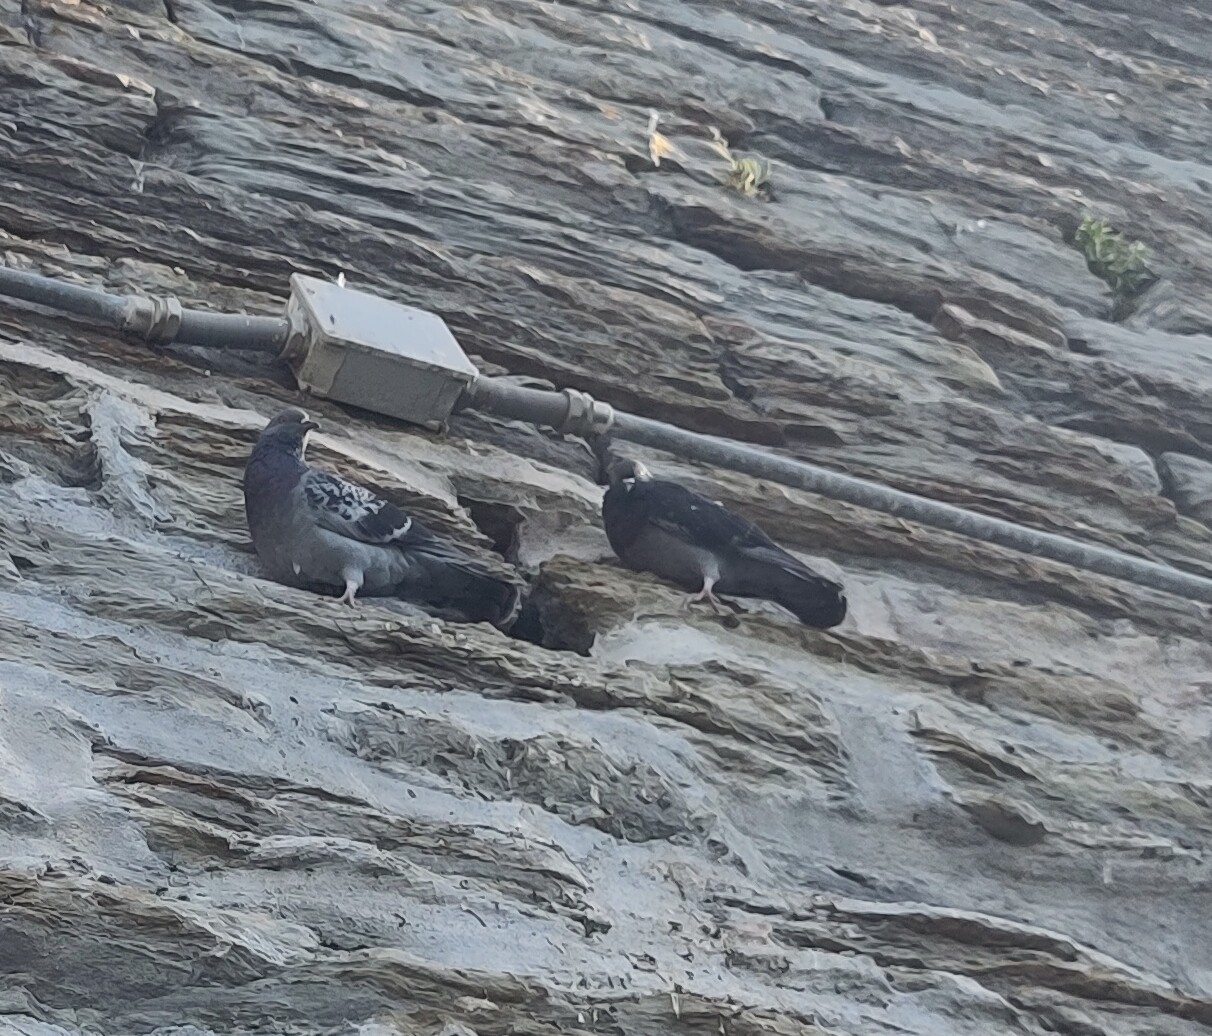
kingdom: Animalia
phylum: Chordata
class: Aves
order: Columbiformes
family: Columbidae
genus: Columba
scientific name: Columba livia
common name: Rock pigeon
